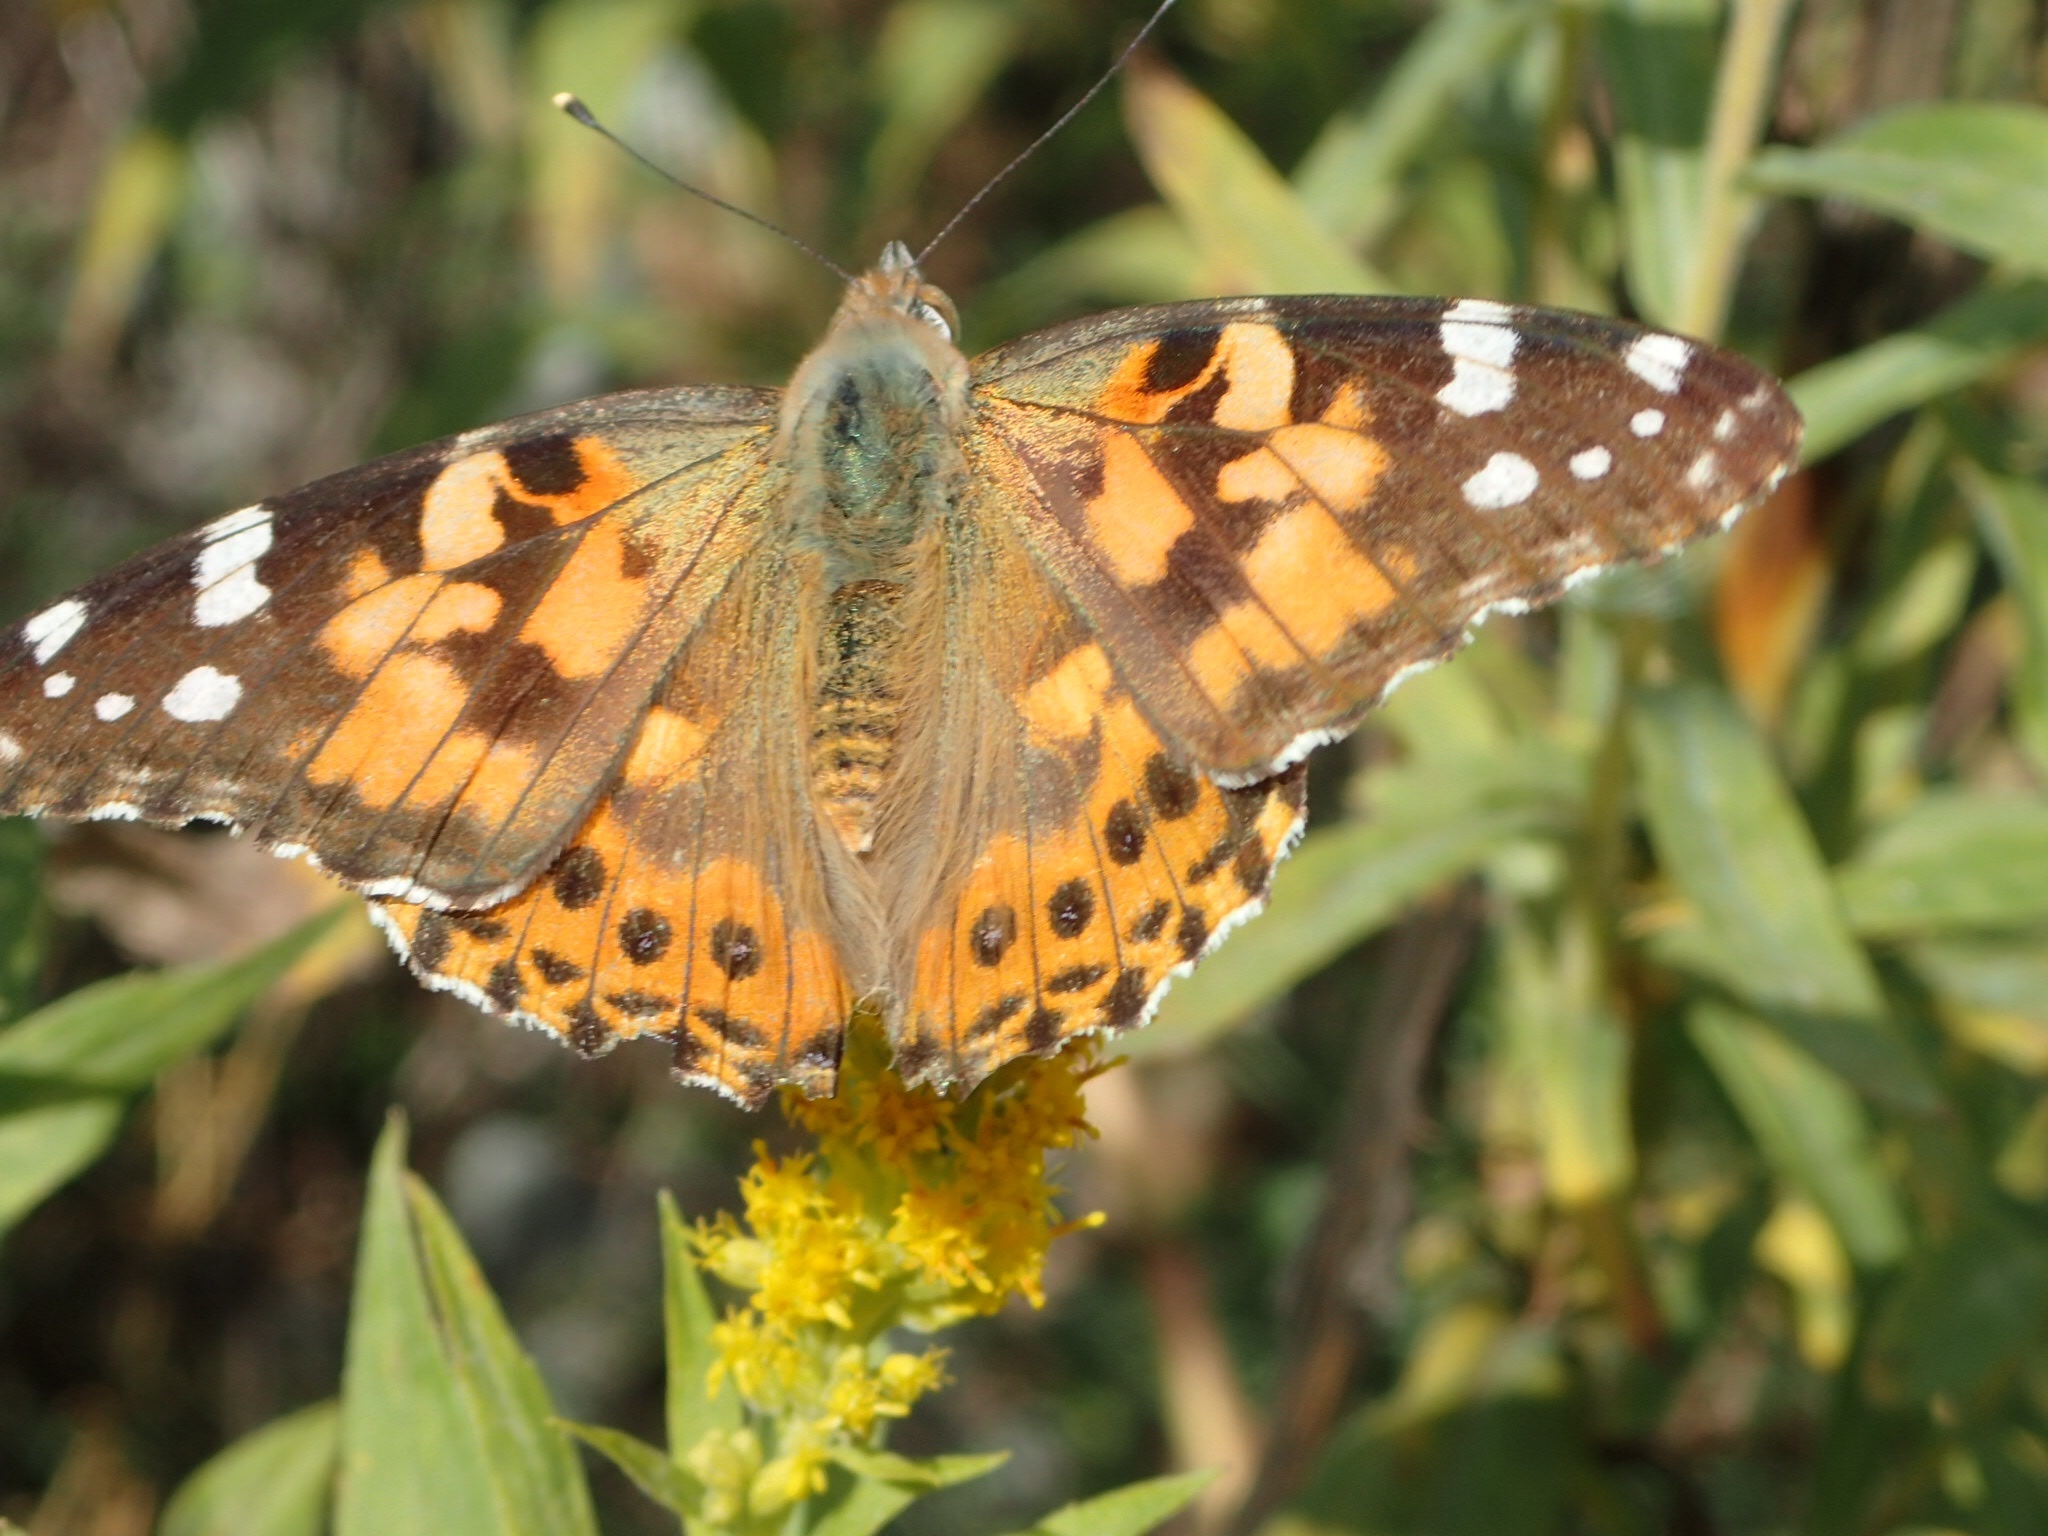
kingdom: Animalia
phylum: Arthropoda
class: Insecta
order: Lepidoptera
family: Nymphalidae
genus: Vanessa
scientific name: Vanessa cardui
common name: Painted lady
